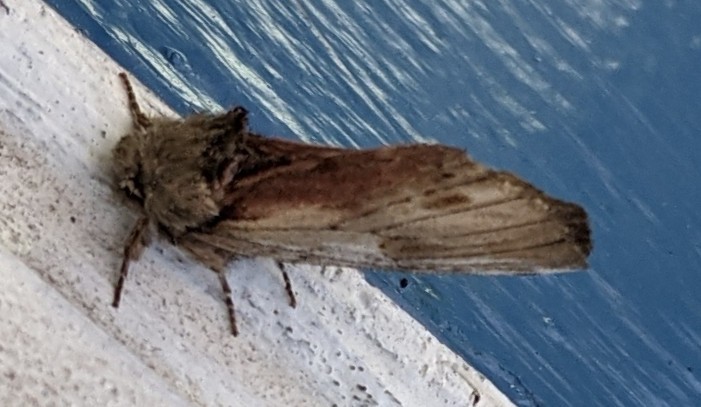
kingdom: Animalia
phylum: Arthropoda
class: Insecta
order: Lepidoptera
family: Notodontidae
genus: Schizura
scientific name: Schizura
